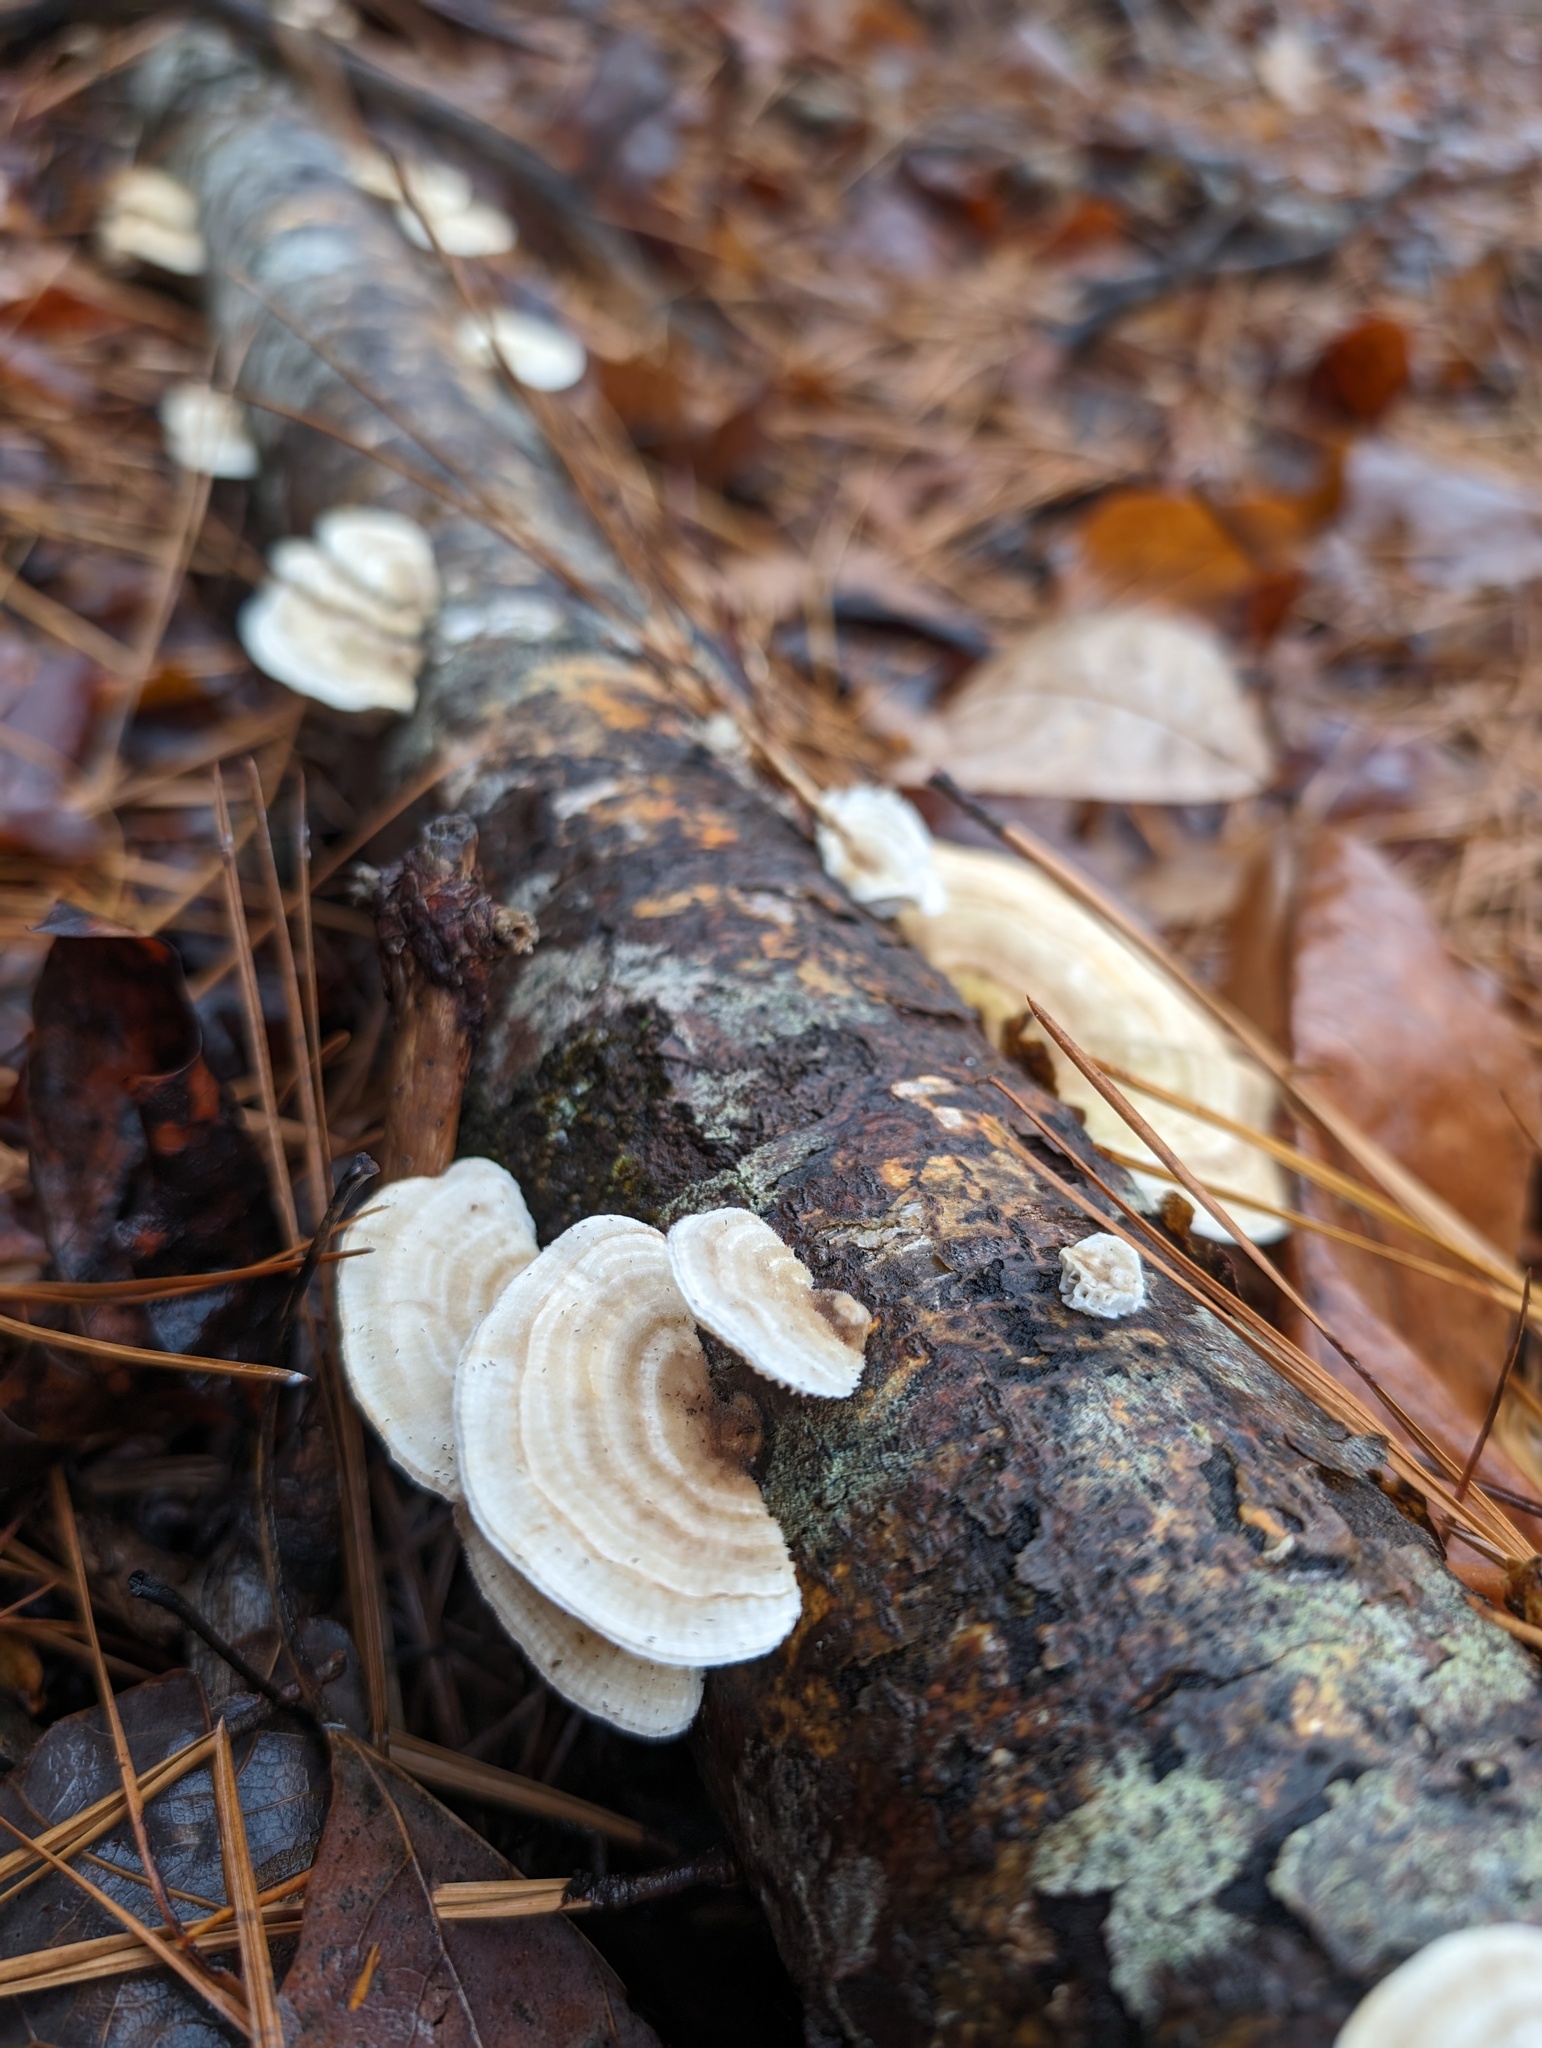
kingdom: Fungi
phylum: Basidiomycota
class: Agaricomycetes
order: Polyporales
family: Polyporaceae
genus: Lenzites
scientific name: Lenzites betulinus
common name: Birch mazegill
